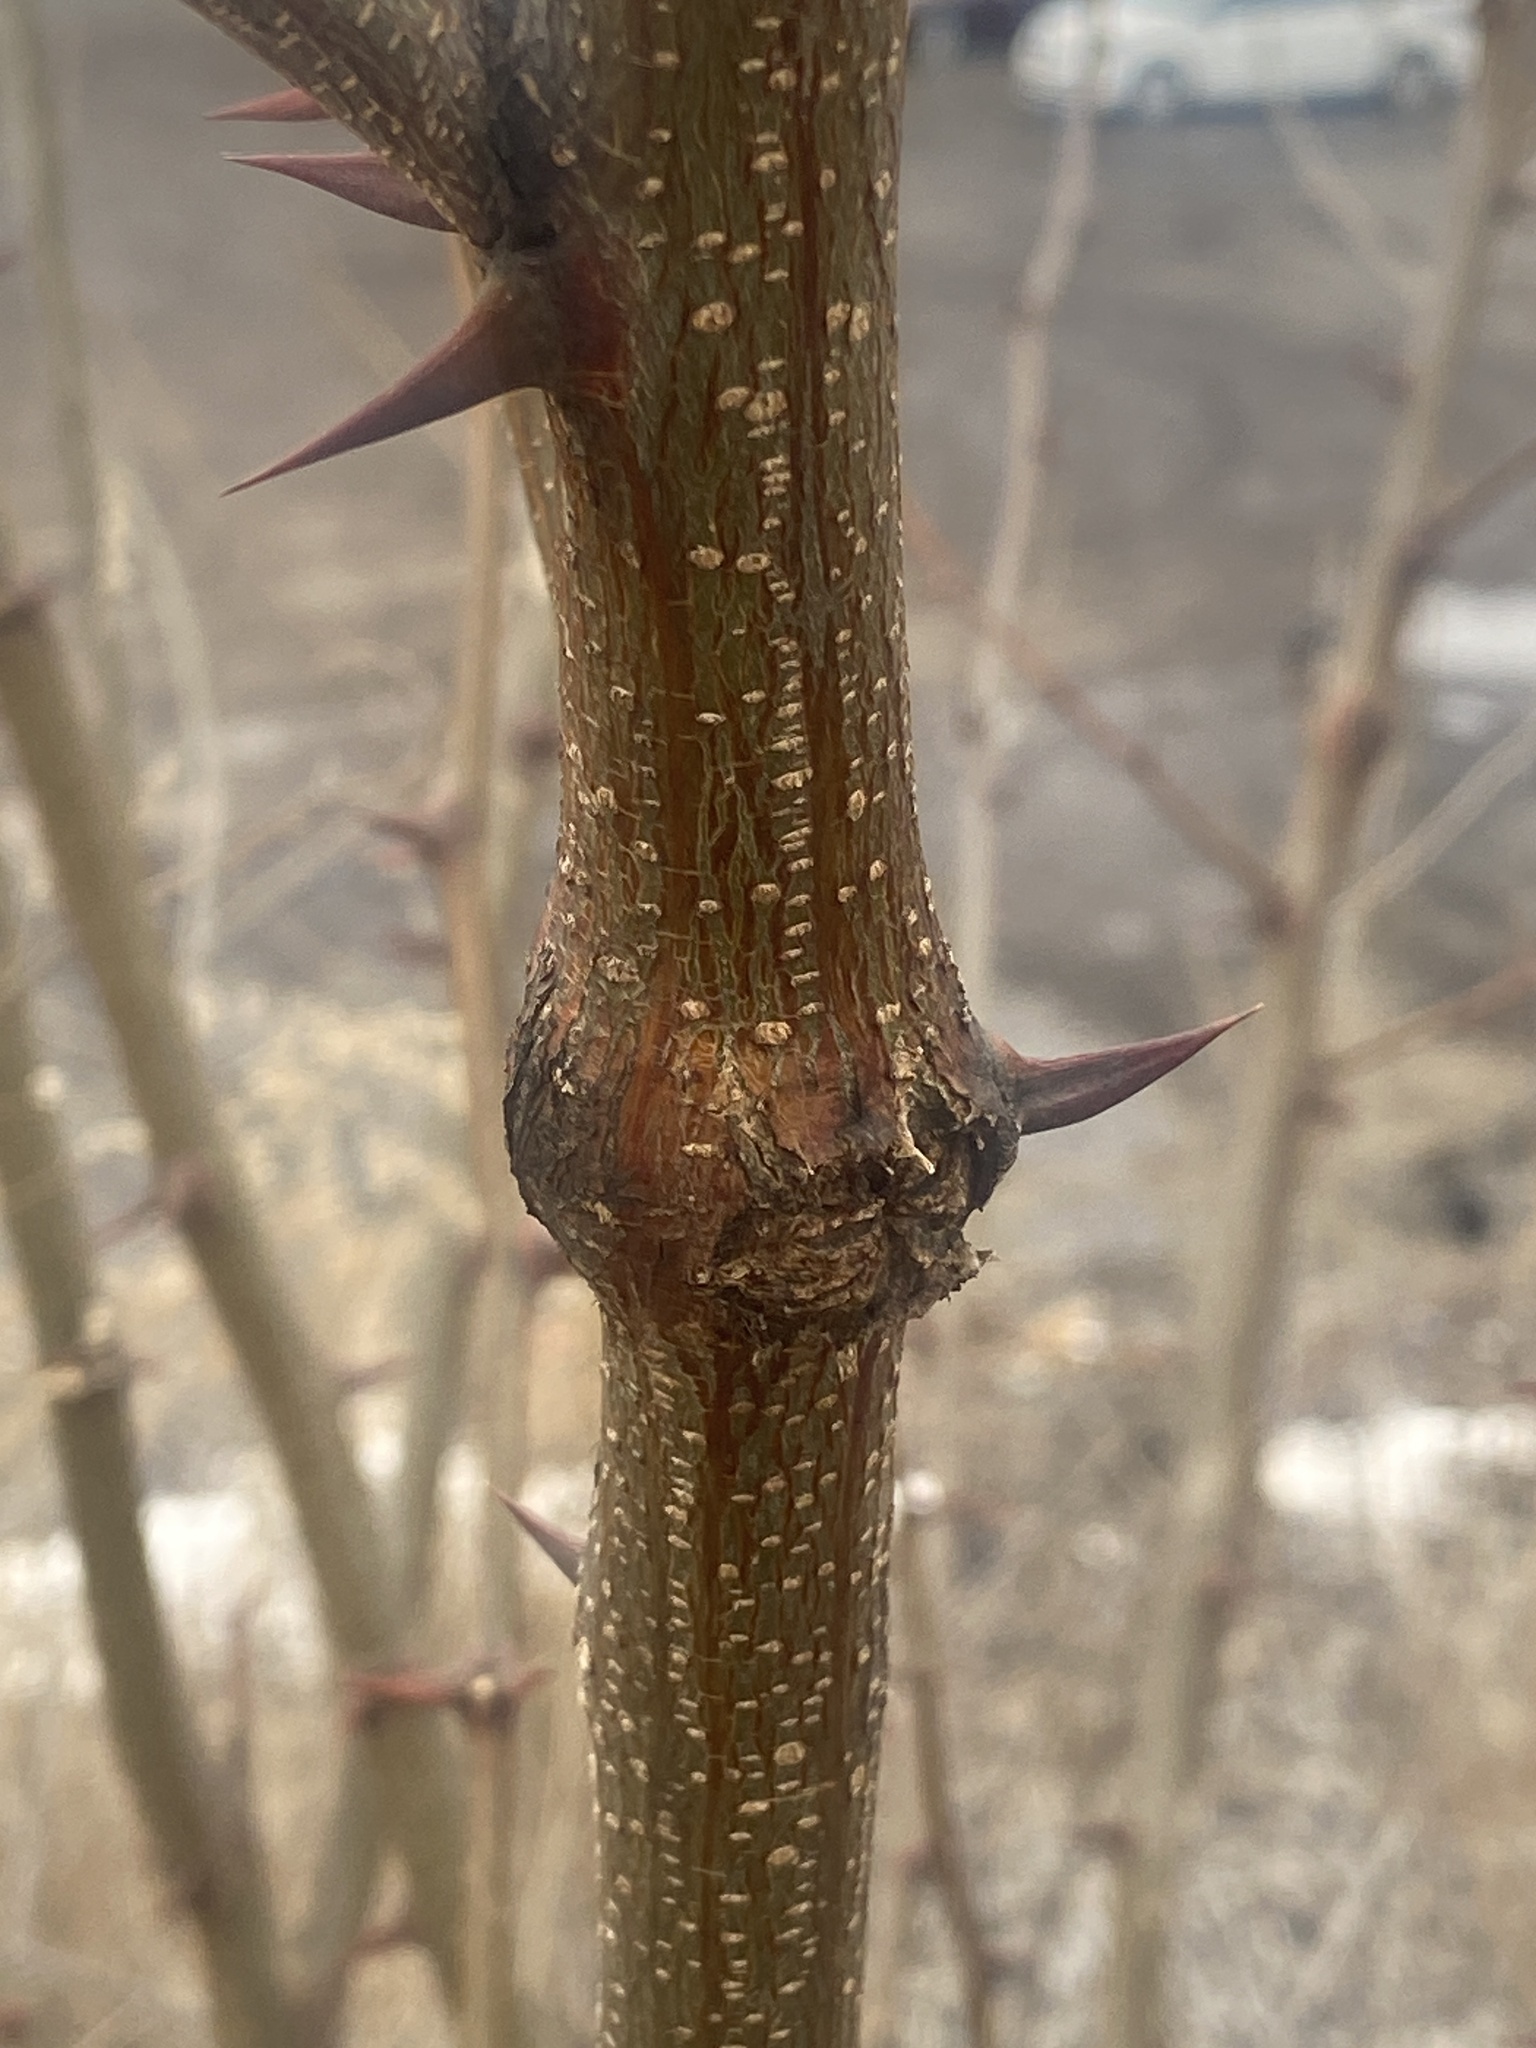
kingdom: Animalia
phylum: Arthropoda
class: Insecta
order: Lepidoptera
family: Tortricidae
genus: Ecdytolopha
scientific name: Ecdytolopha insiticiana
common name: Locust twig borer moth
